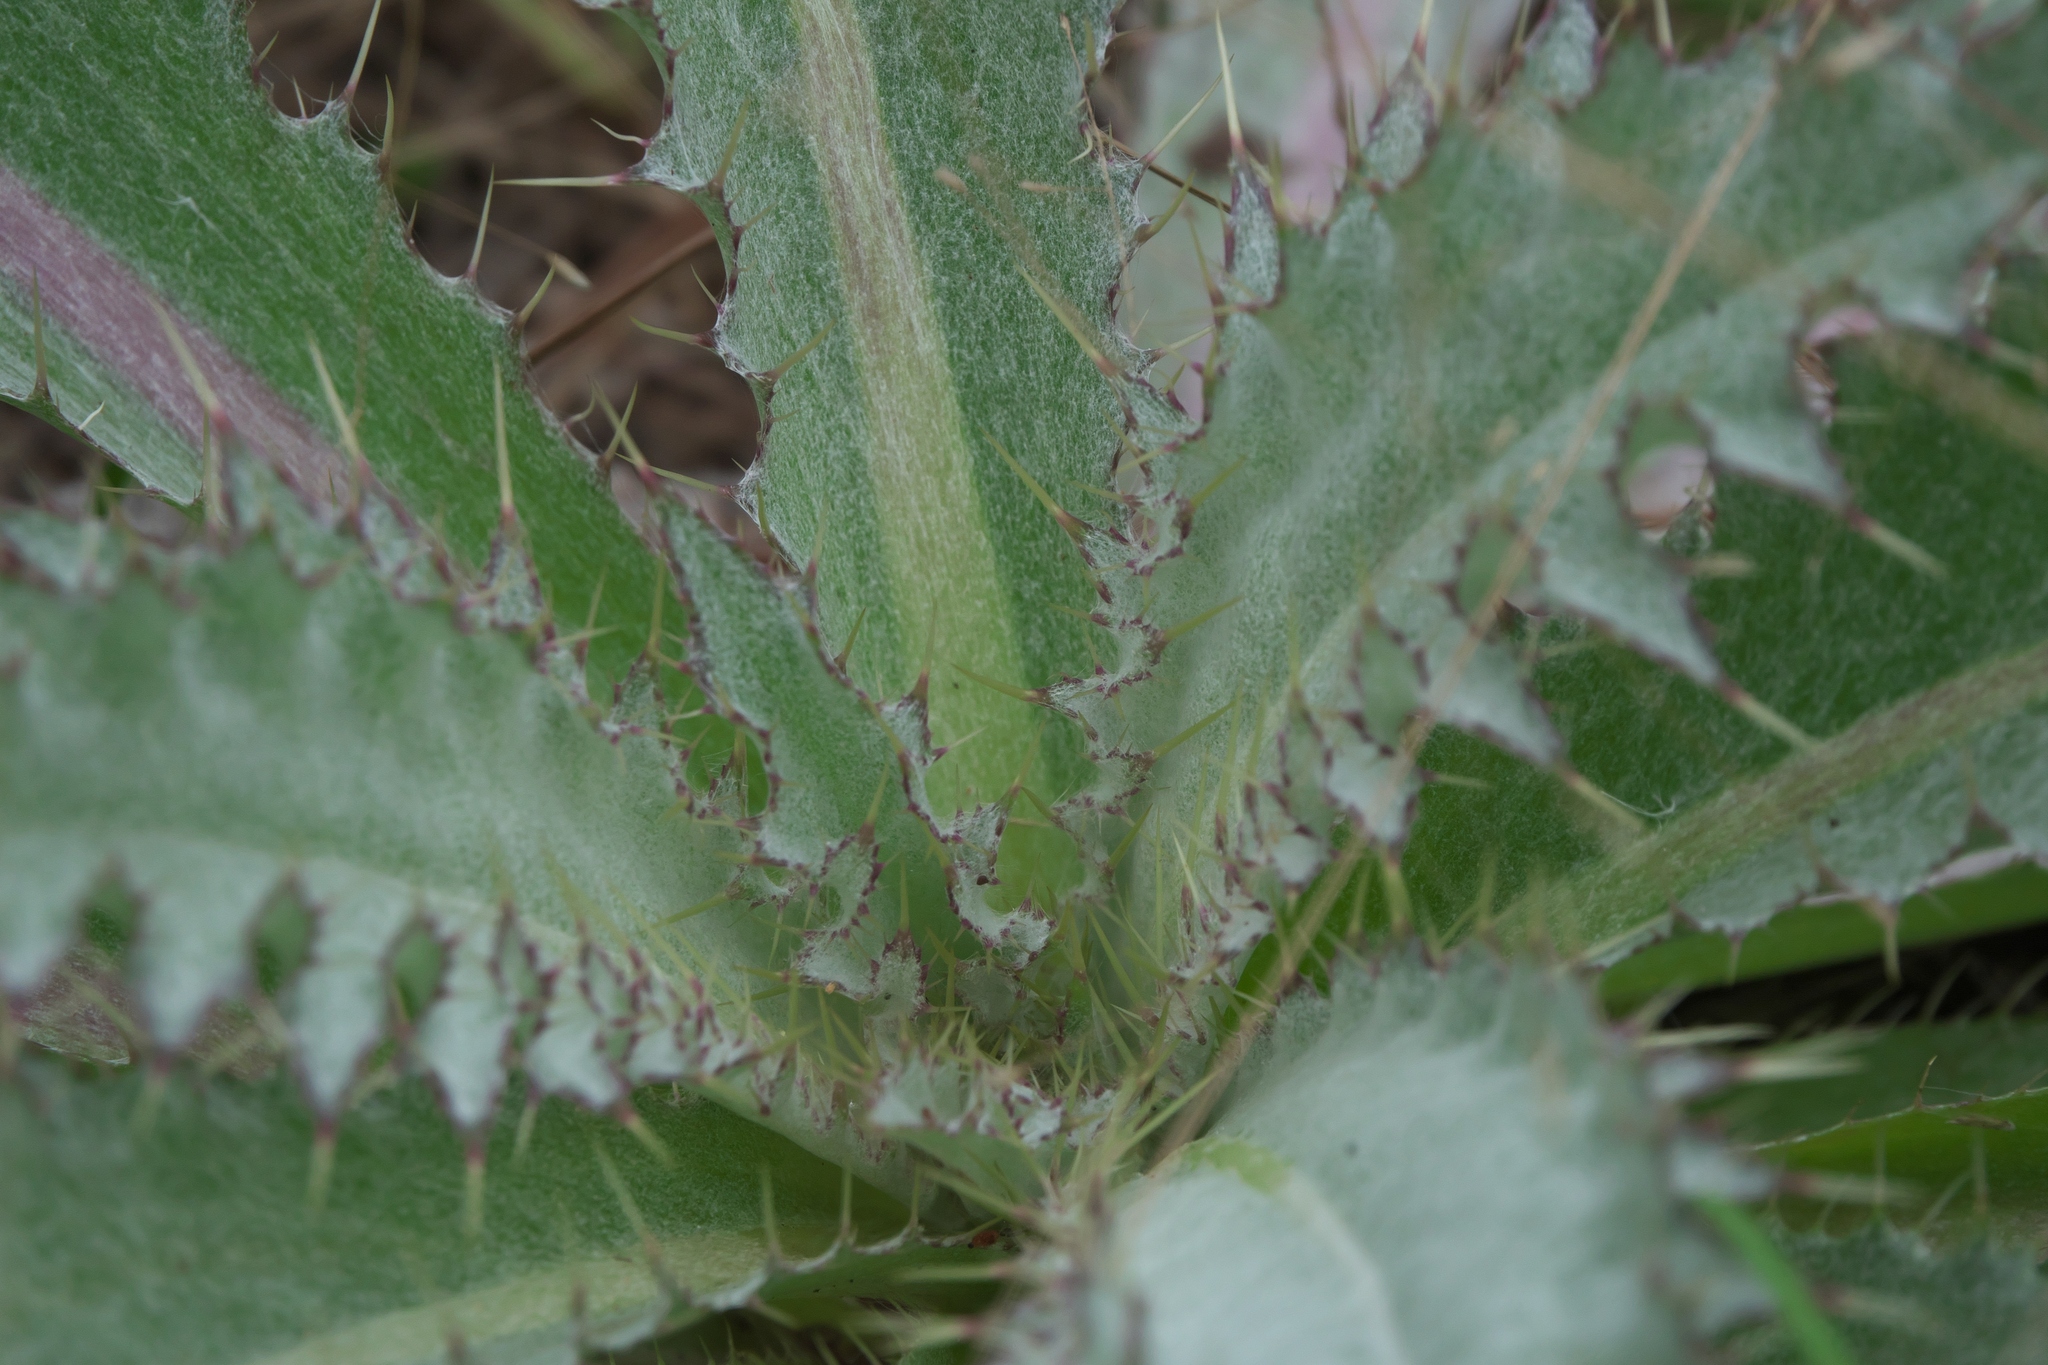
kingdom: Plantae
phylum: Tracheophyta
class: Magnoliopsida
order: Asterales
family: Asteraceae
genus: Cirsium
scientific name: Cirsium horridulum
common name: Bristly thistle
